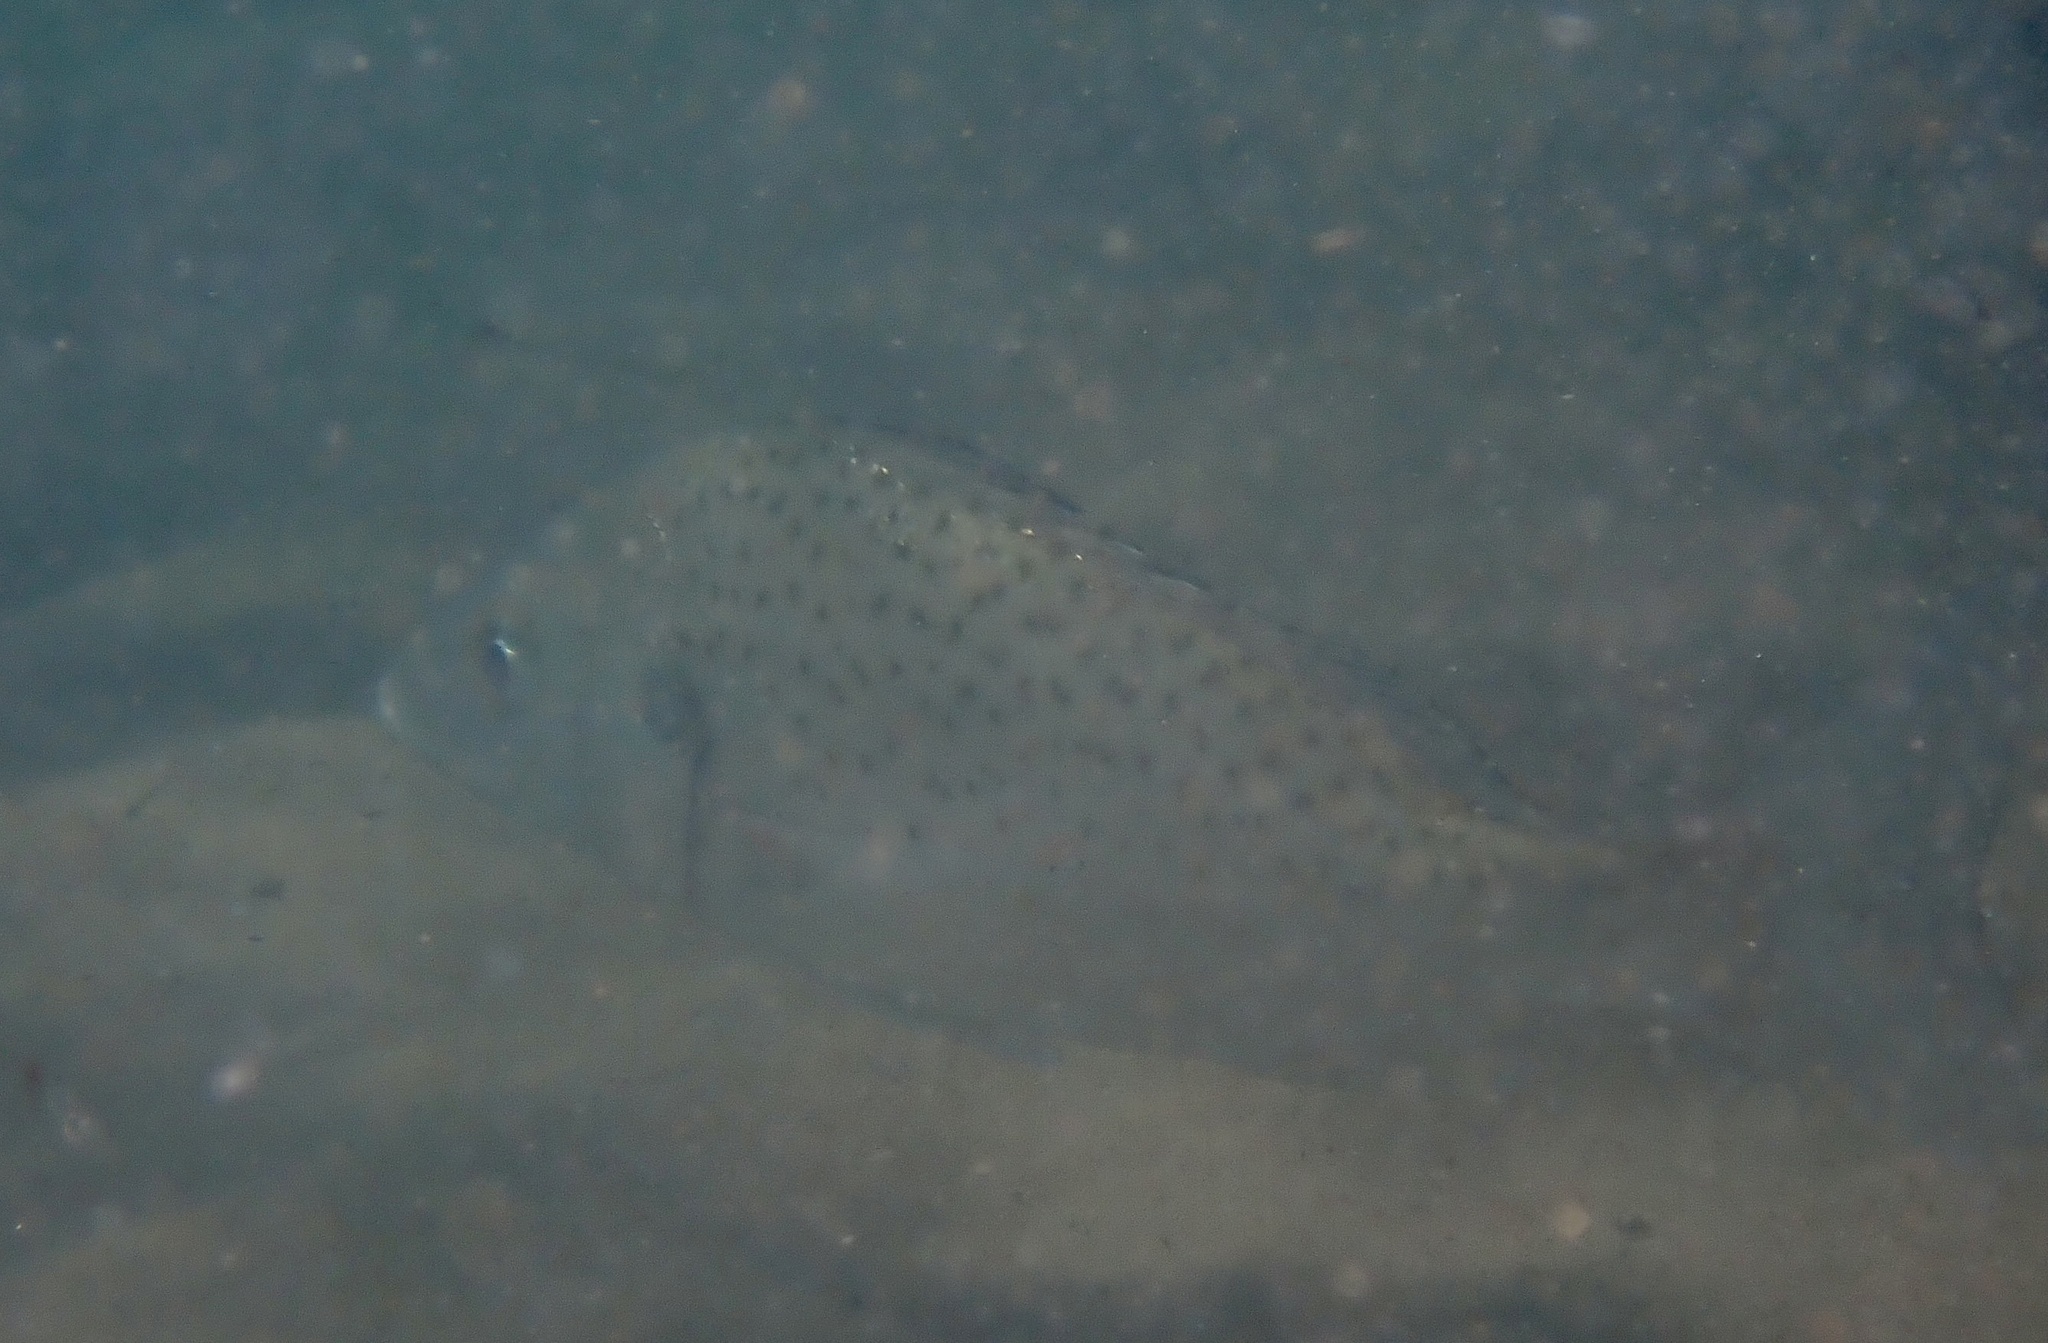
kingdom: Animalia
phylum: Chordata
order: Perciformes
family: Haemulidae
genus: Pomadasys
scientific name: Pomadasys commersonnii
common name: Smallspotted grunter
